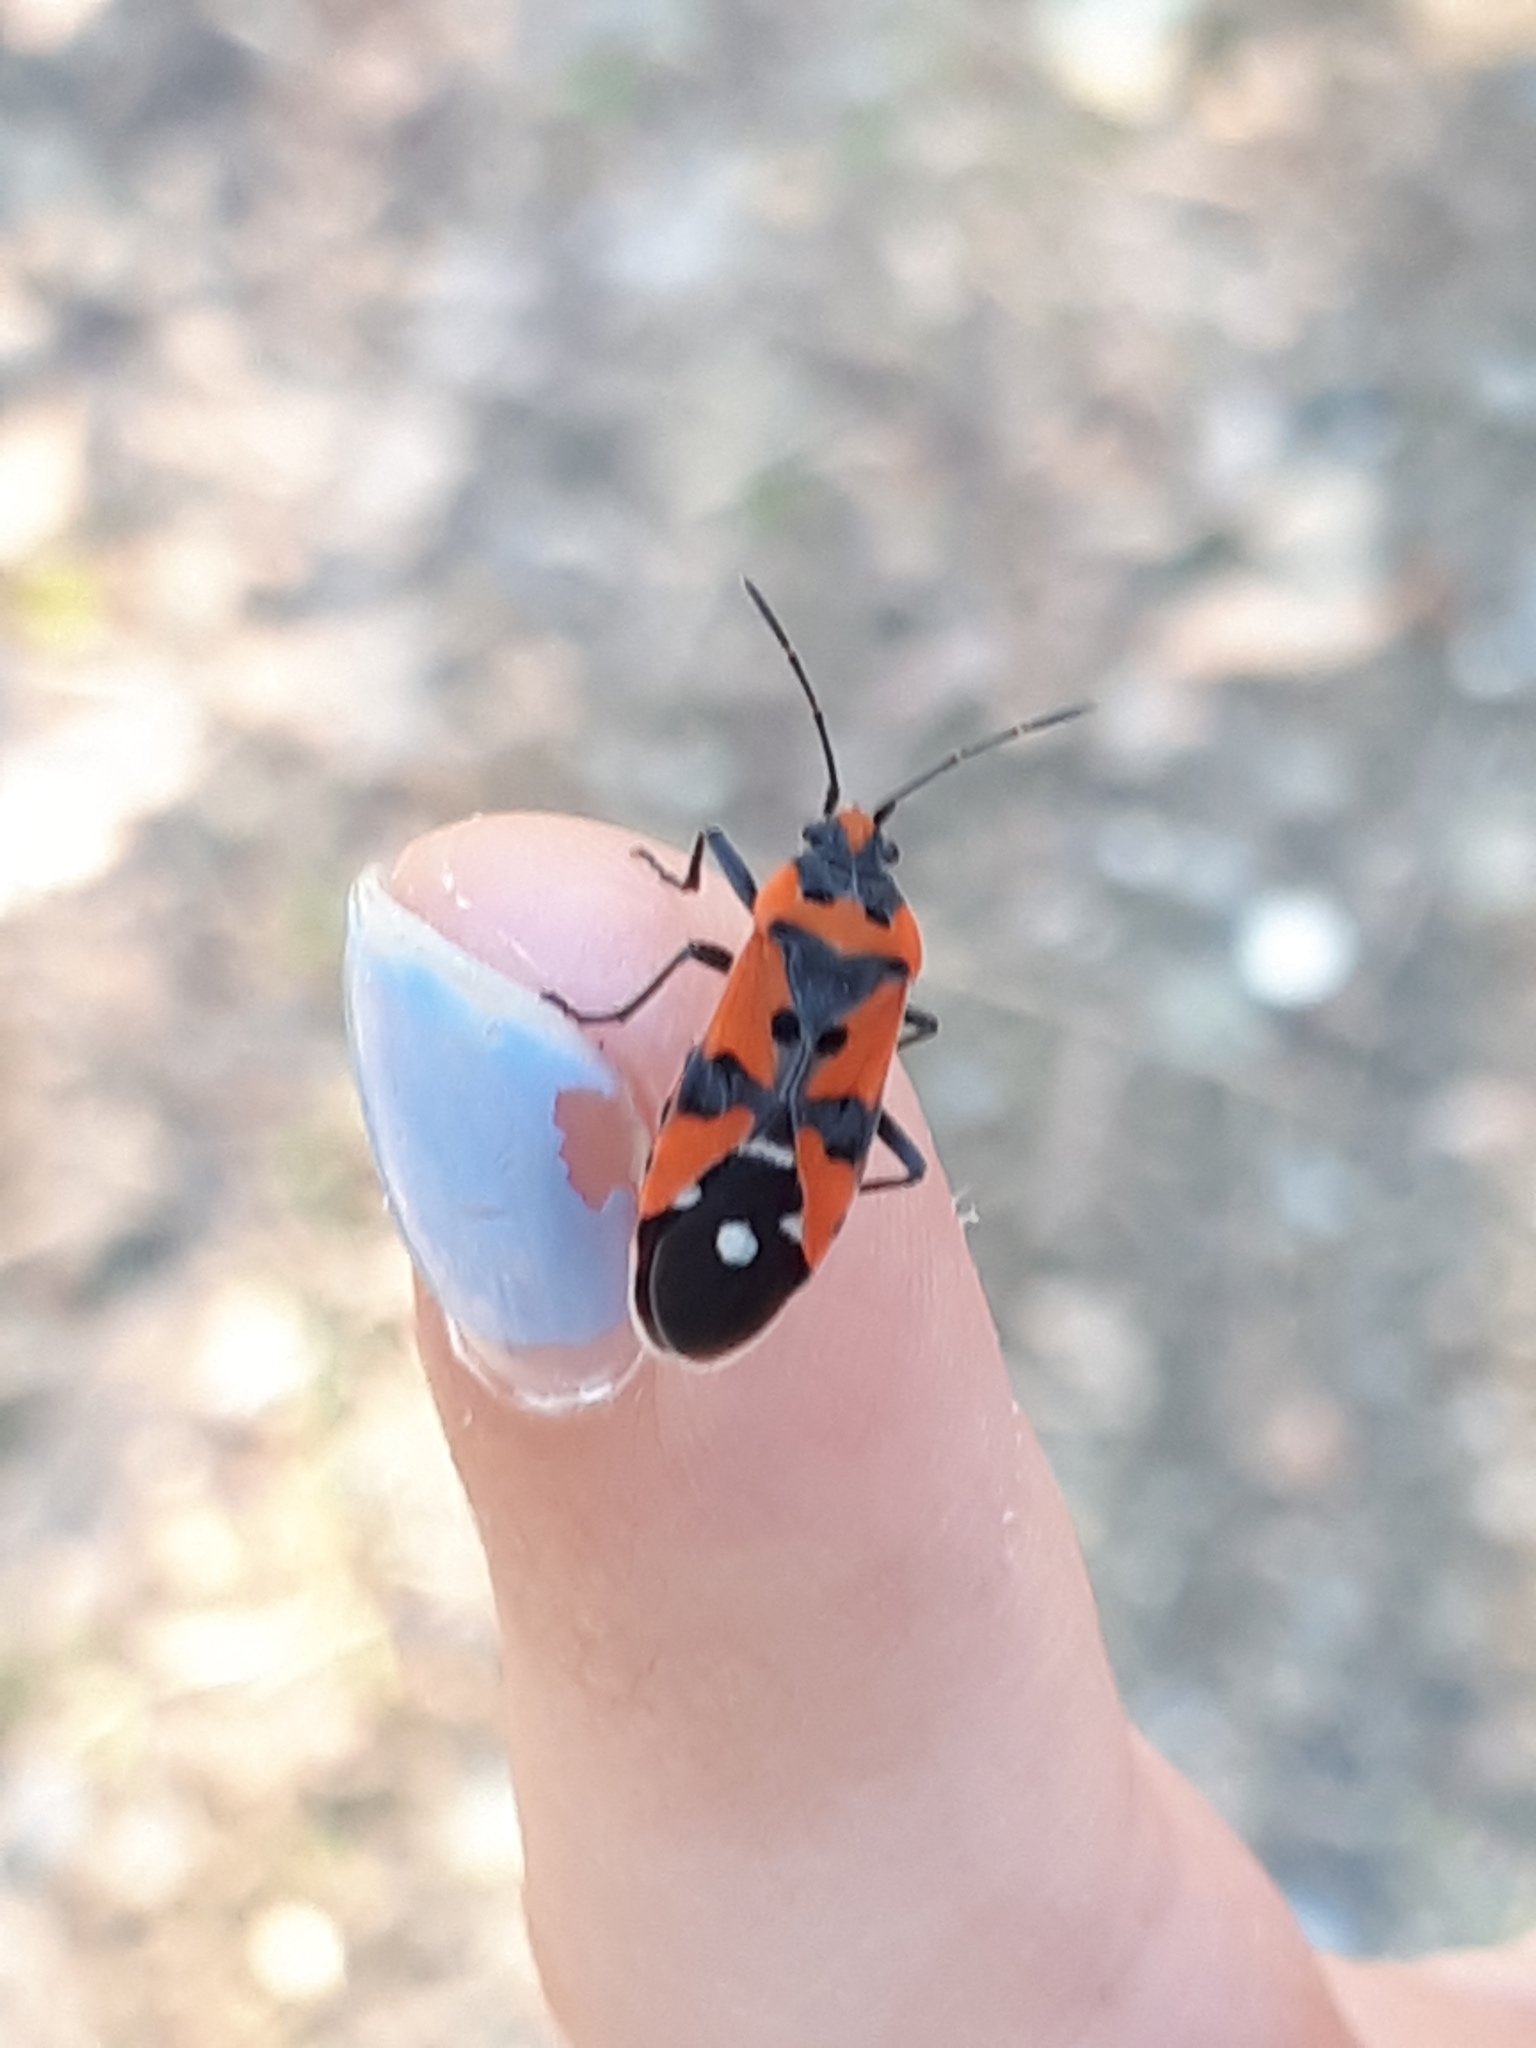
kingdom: Animalia
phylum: Arthropoda
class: Insecta
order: Hemiptera
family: Lygaeidae
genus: Lygaeus
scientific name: Lygaeus equestris
